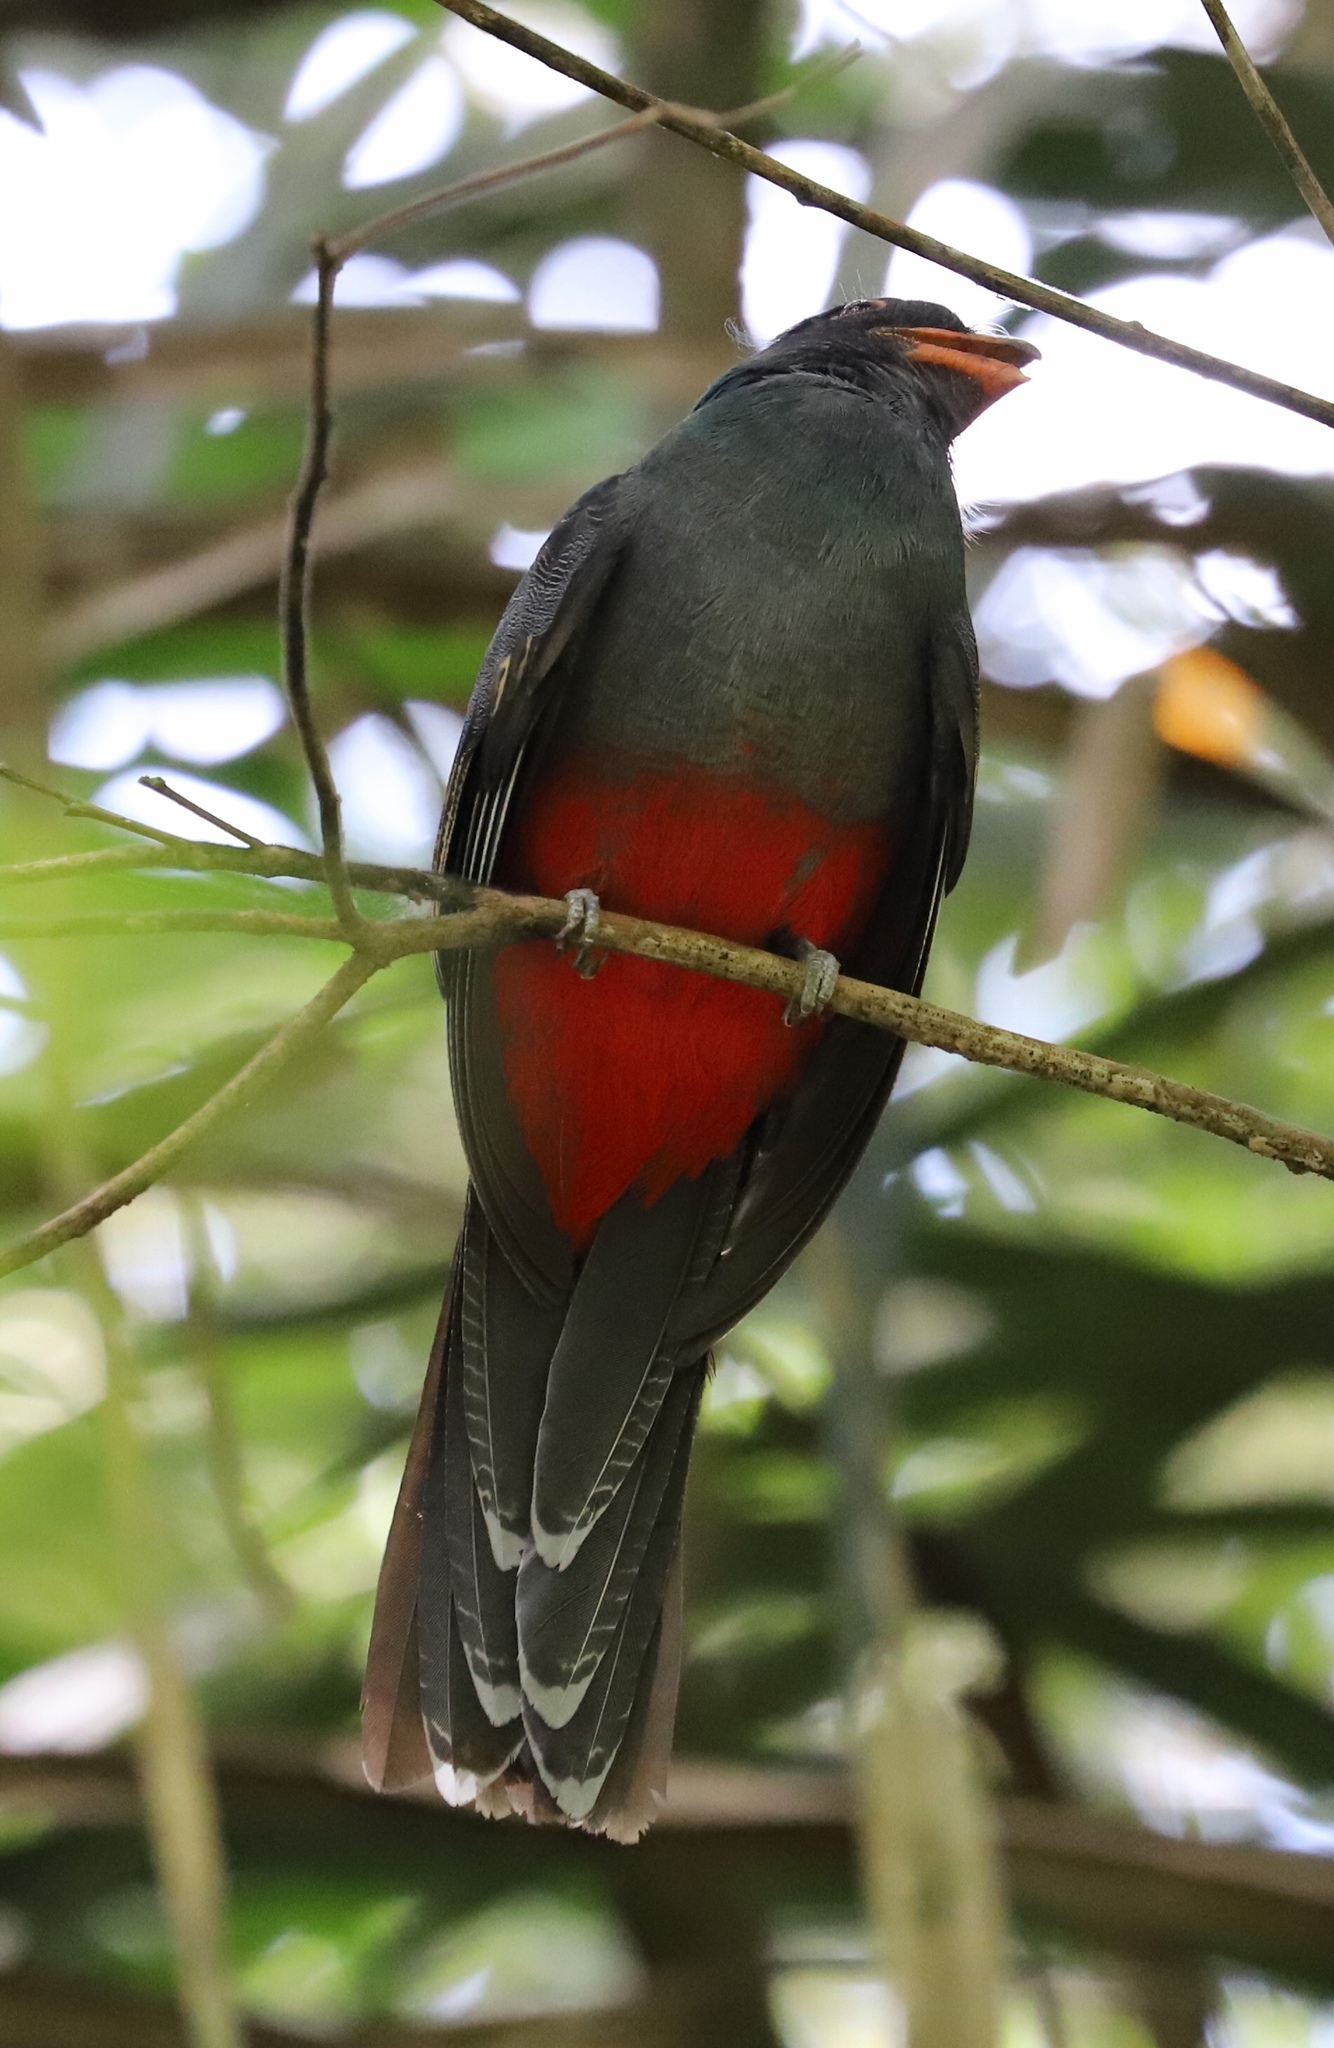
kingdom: Animalia
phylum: Chordata
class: Aves
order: Trogoniformes
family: Trogonidae
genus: Trogon
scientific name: Trogon massena
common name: Slaty-tailed trogon
